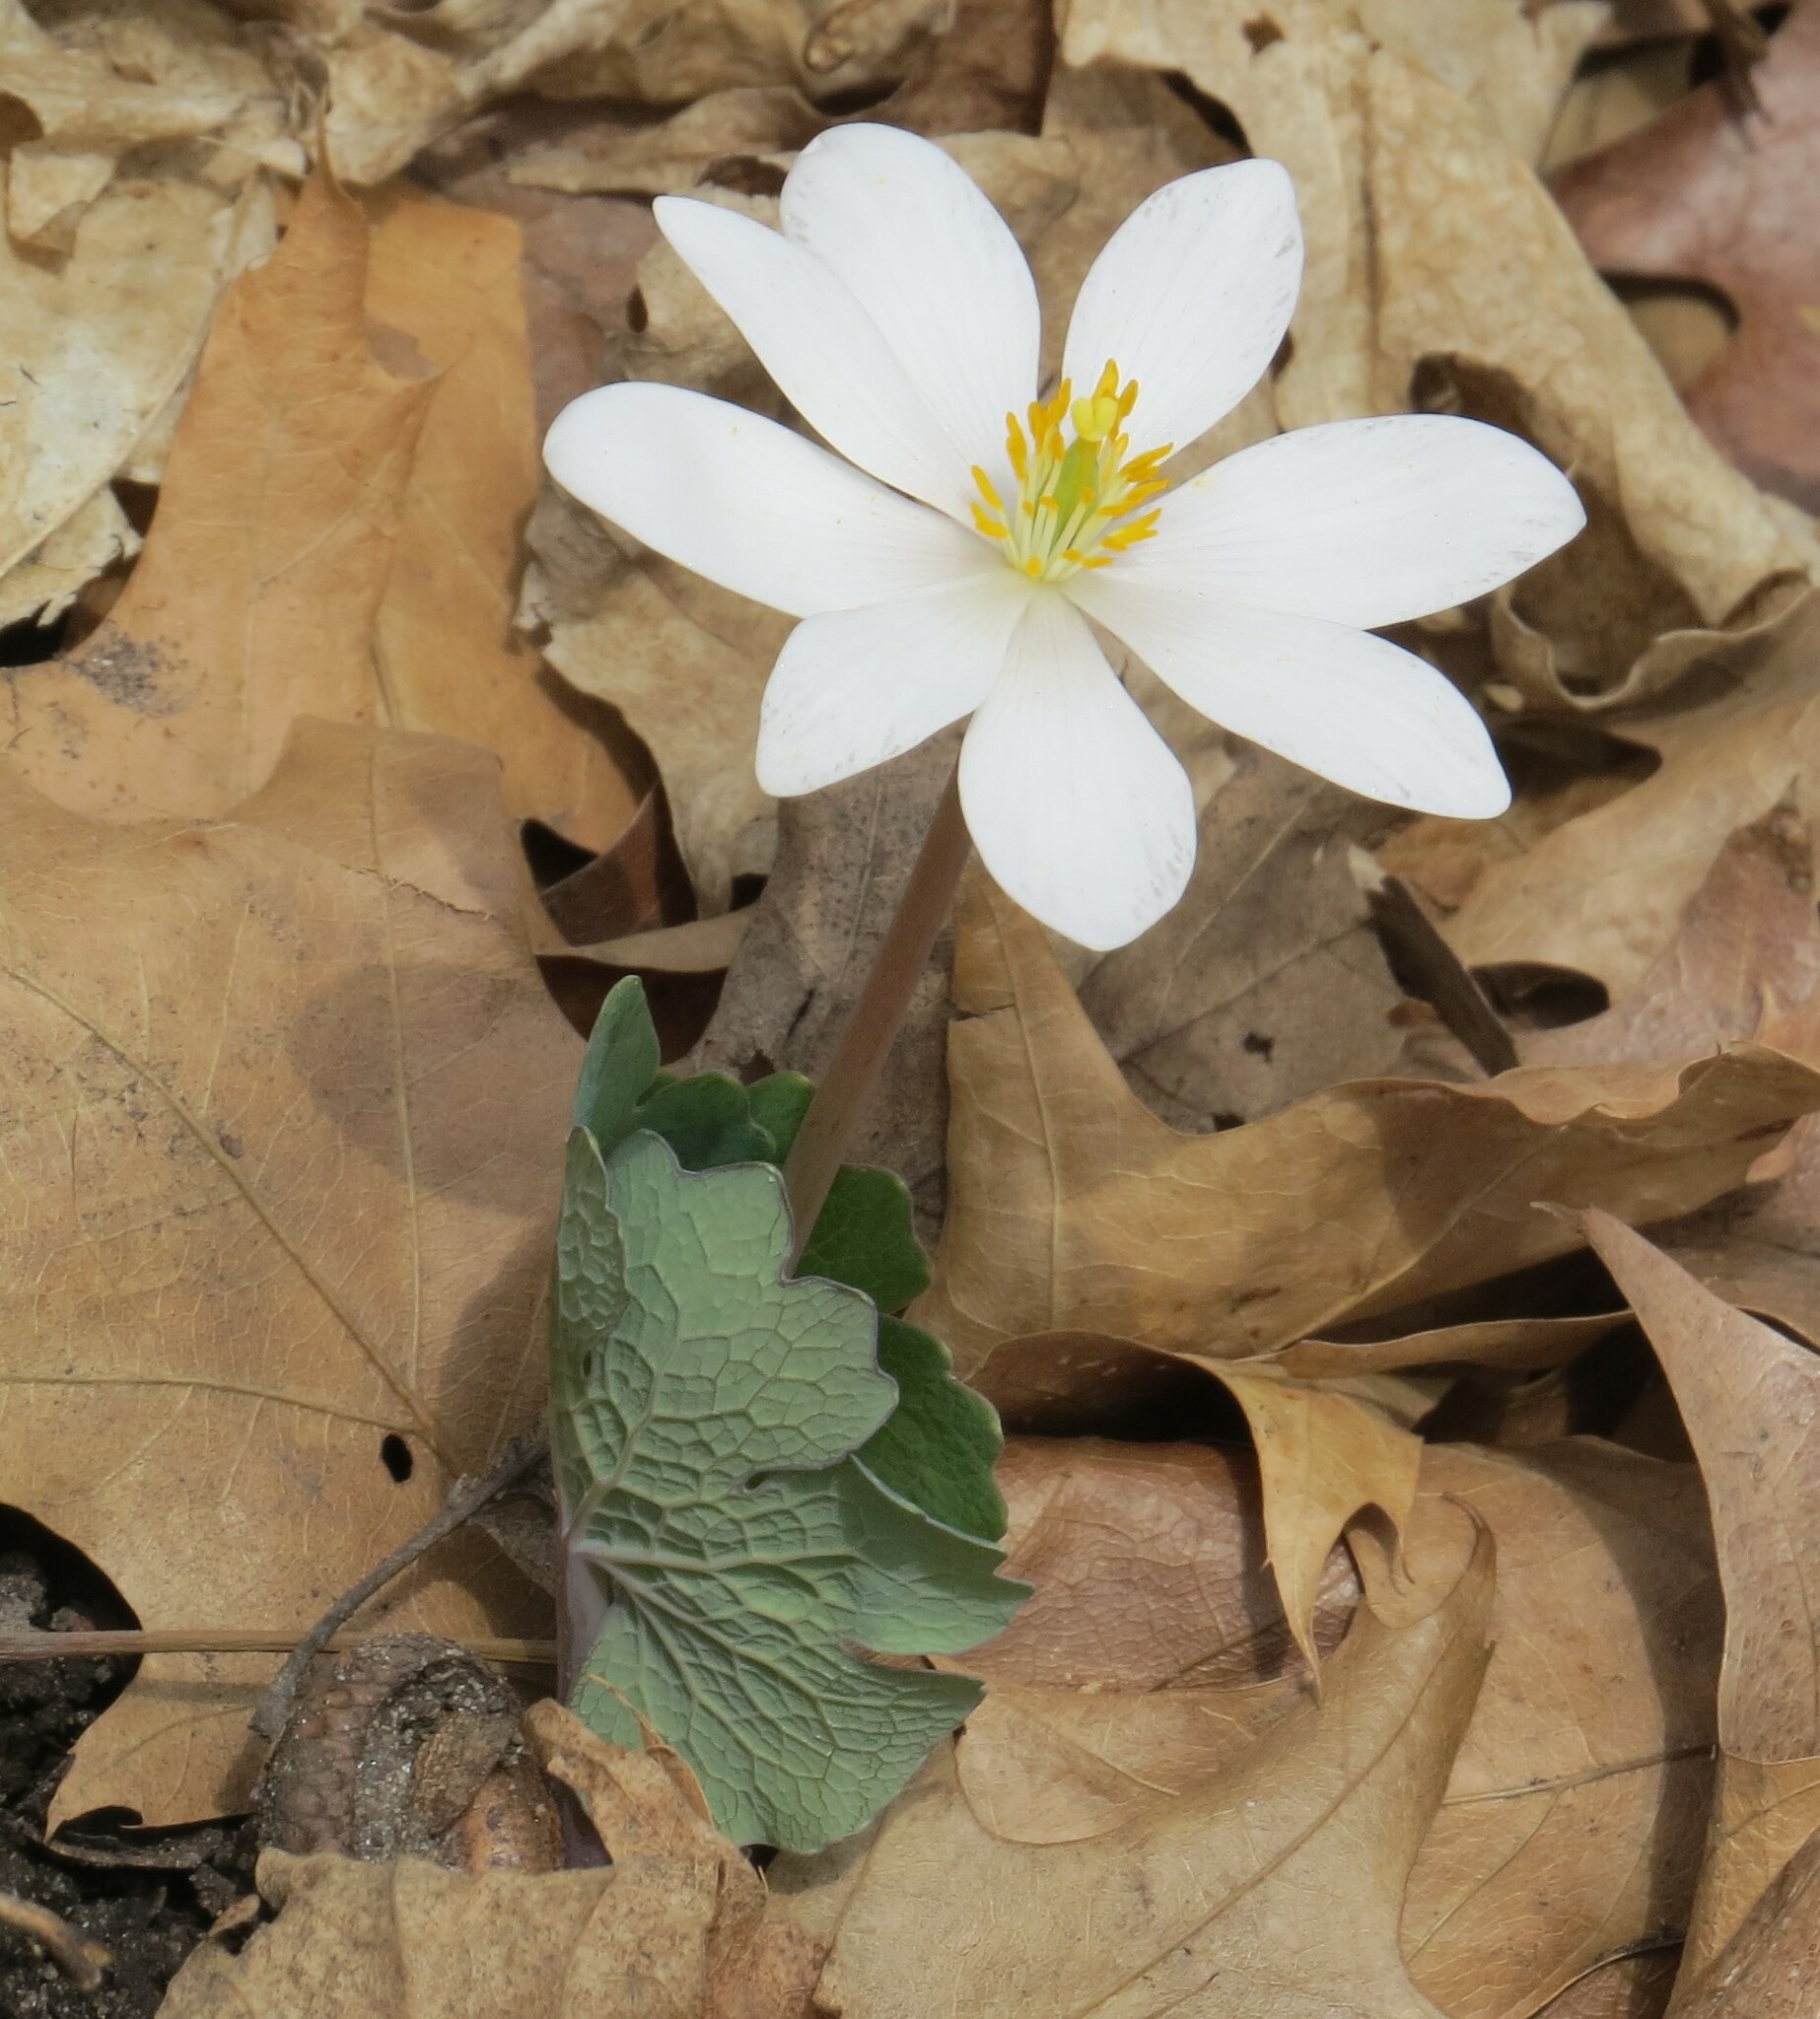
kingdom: Plantae
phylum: Tracheophyta
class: Magnoliopsida
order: Ranunculales
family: Papaveraceae
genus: Sanguinaria
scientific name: Sanguinaria canadensis
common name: Bloodroot
